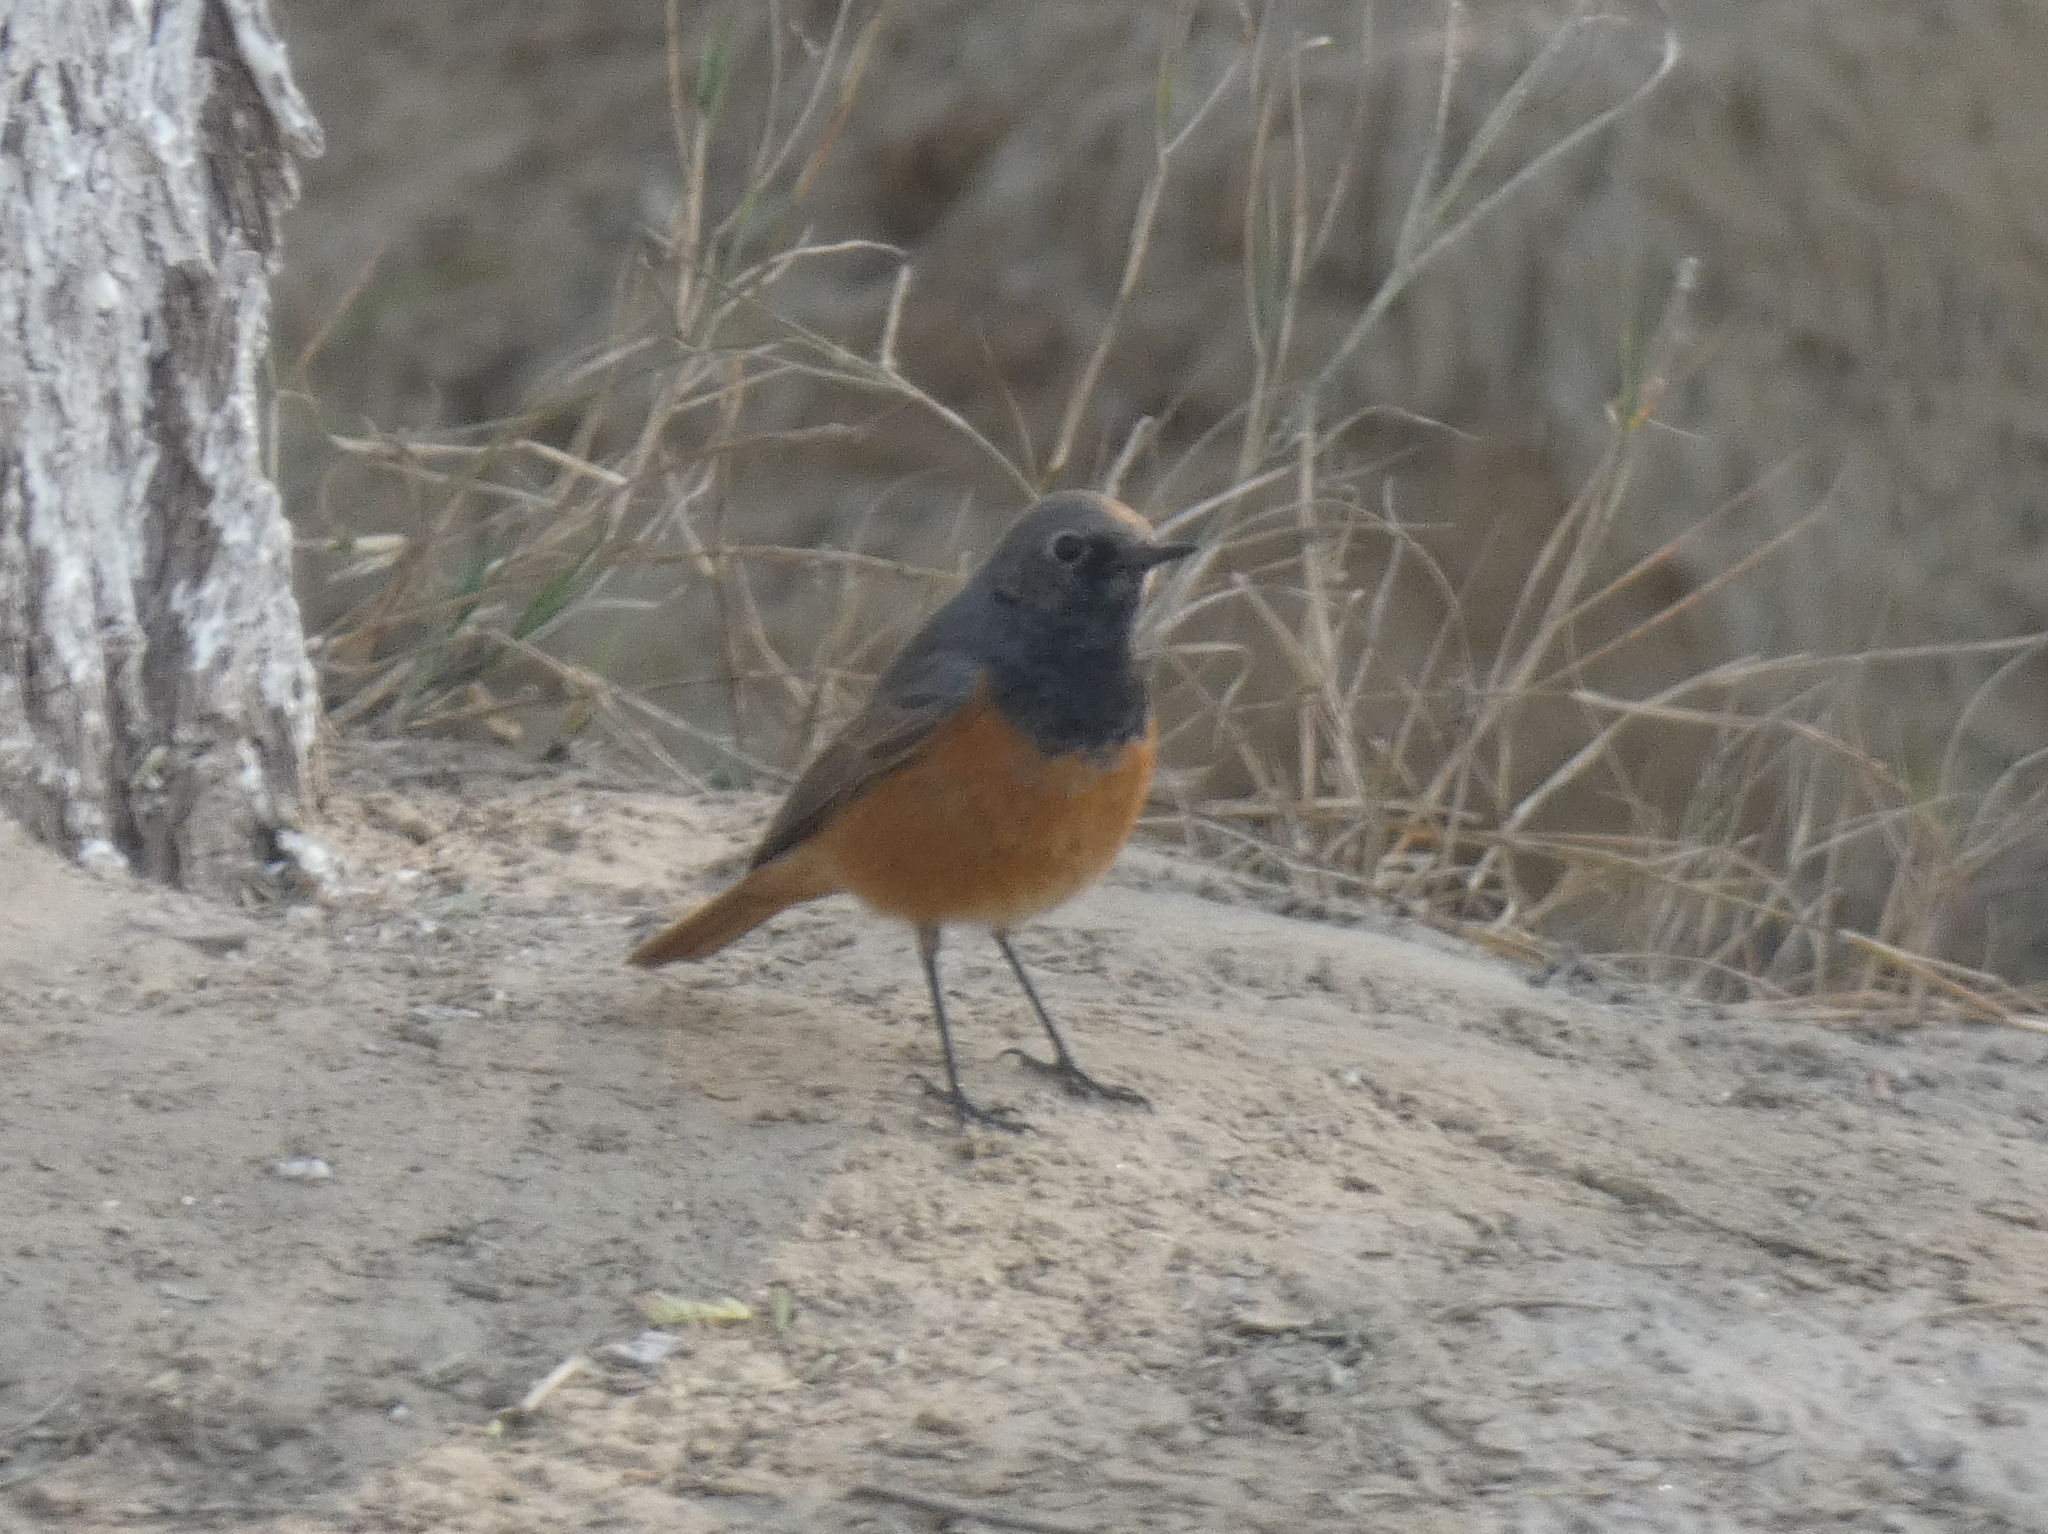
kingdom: Animalia
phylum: Chordata
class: Aves
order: Passeriformes
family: Muscicapidae
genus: Phoenicurus
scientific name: Phoenicurus ochruros
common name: Black redstart
